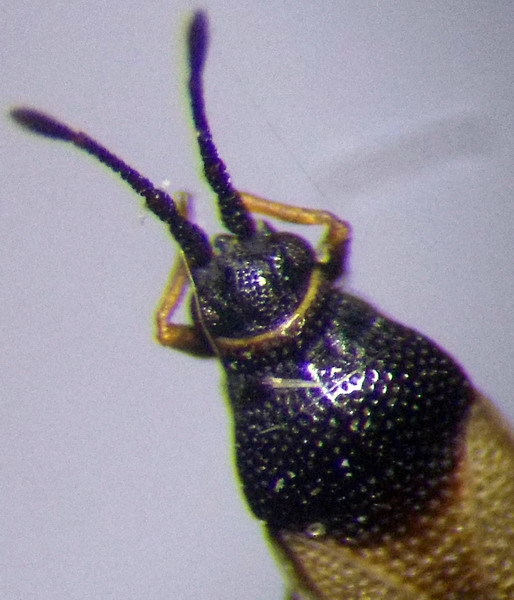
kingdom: Animalia
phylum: Arthropoda
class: Insecta
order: Hemiptera
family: Tingidae
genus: Agramma
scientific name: Agramma confusum
